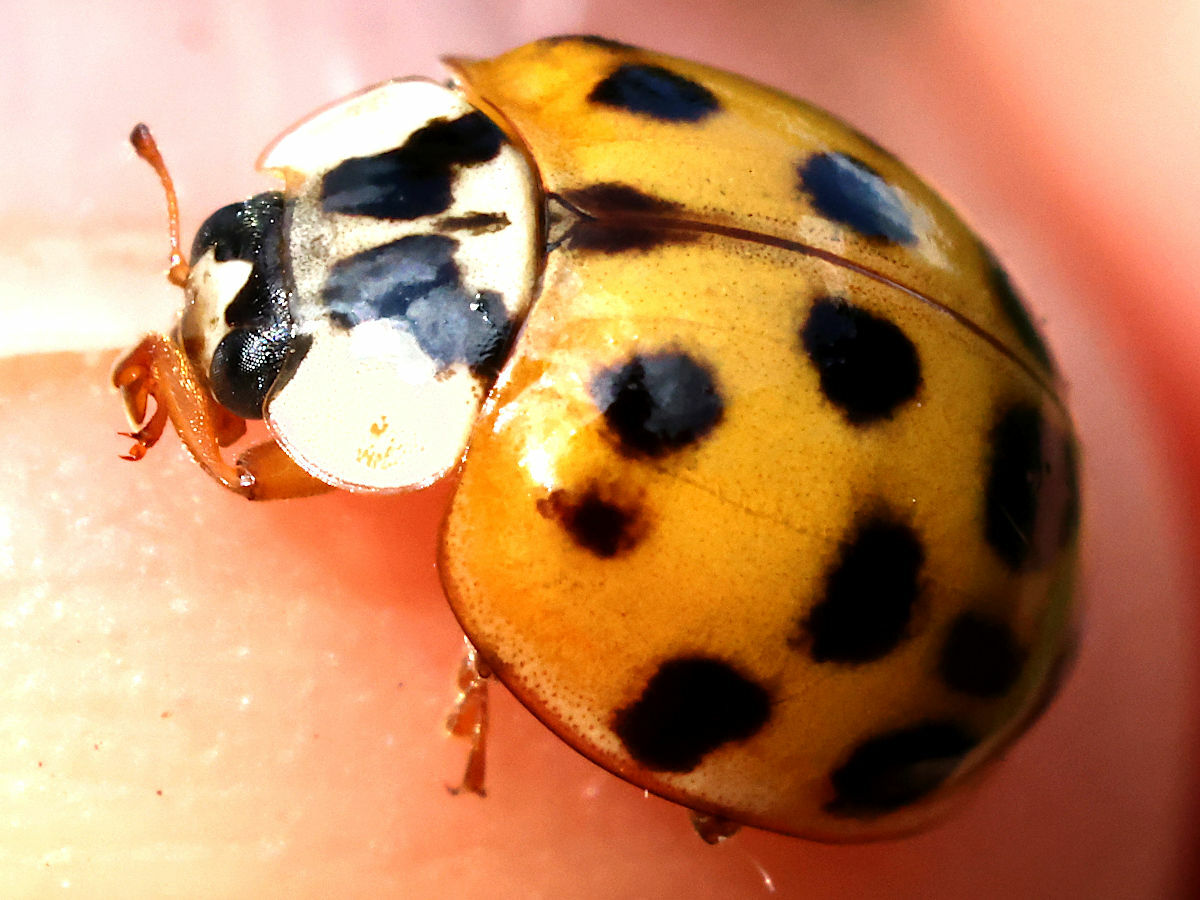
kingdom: Animalia
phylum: Arthropoda
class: Insecta
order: Coleoptera
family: Coccinellidae
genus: Harmonia
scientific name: Harmonia axyridis
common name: Harlequin ladybird
